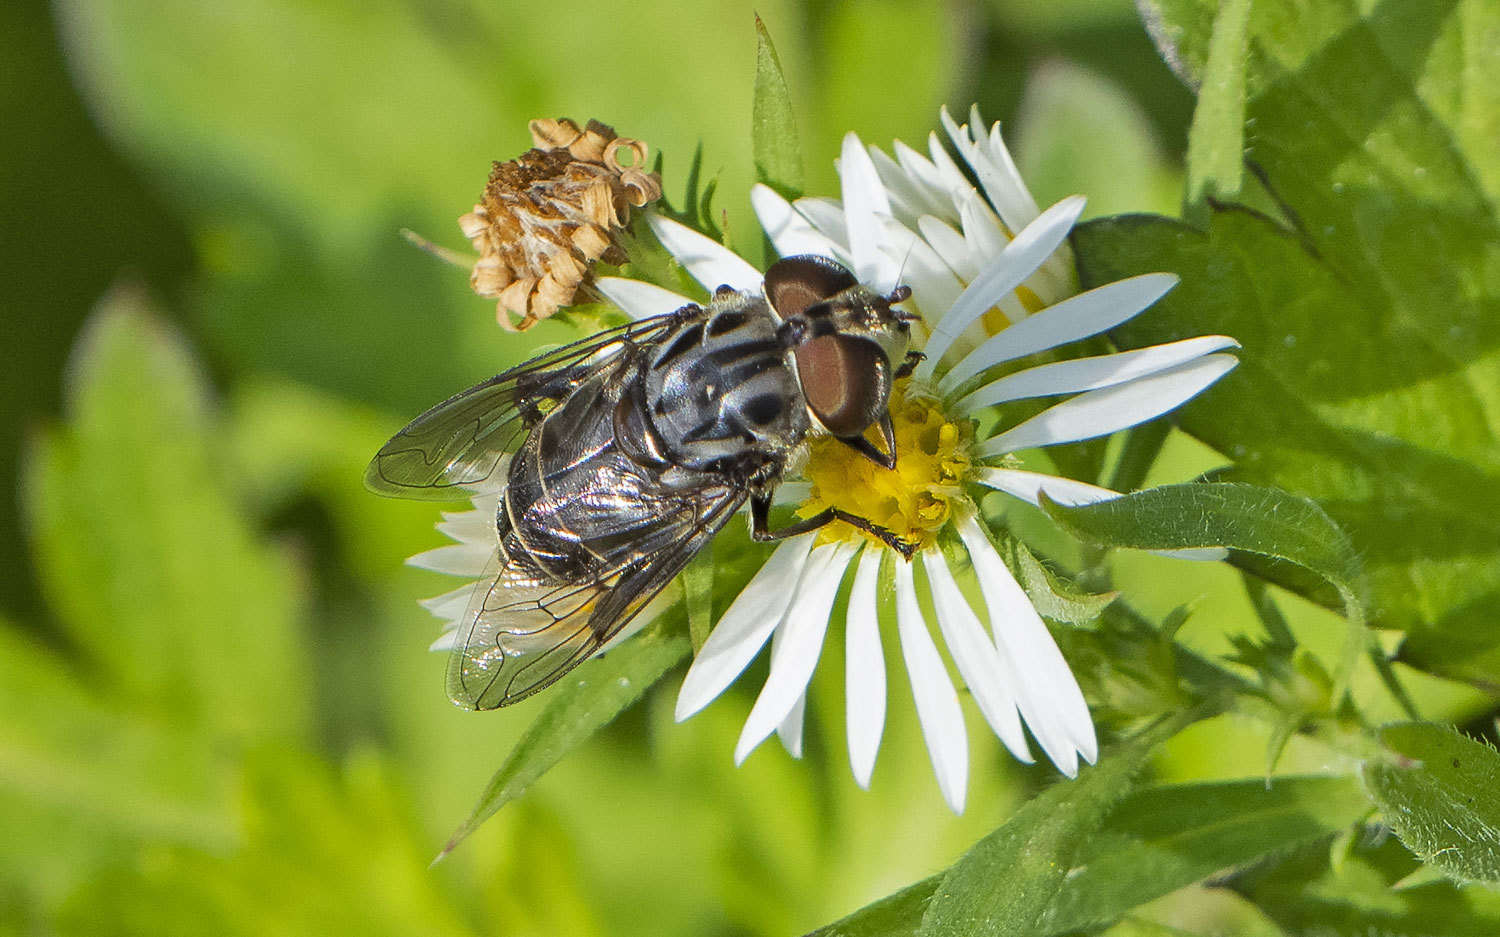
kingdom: Animalia
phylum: Arthropoda
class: Insecta
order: Diptera
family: Syrphidae
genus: Palpada
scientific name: Palpada furcata
